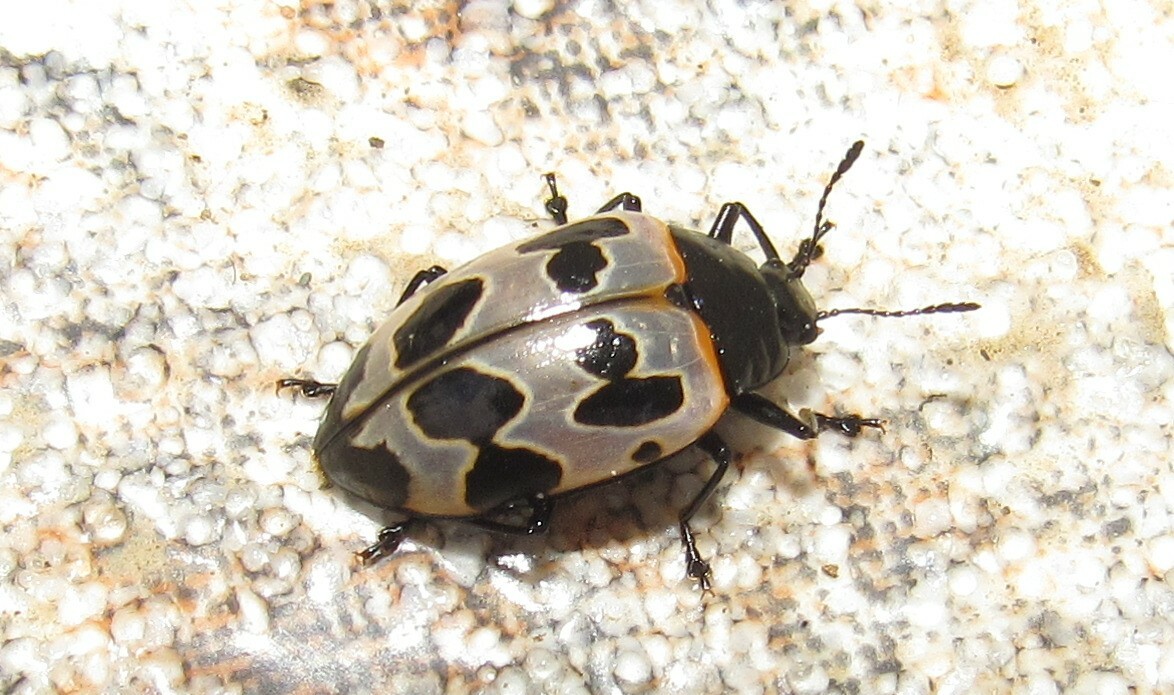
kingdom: Animalia
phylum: Arthropoda
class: Insecta
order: Coleoptera
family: Erotylidae
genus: Oligocorynus
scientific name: Oligocorynus
